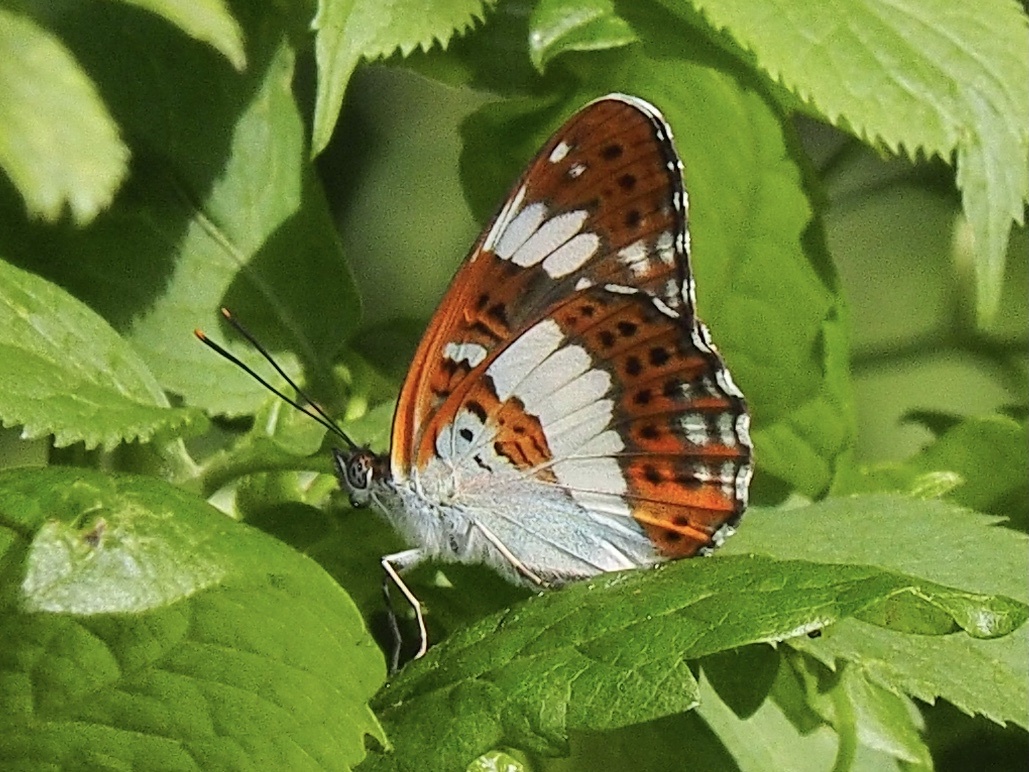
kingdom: Animalia
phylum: Arthropoda
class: Insecta
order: Lepidoptera
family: Nymphalidae
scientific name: Nymphalidae
